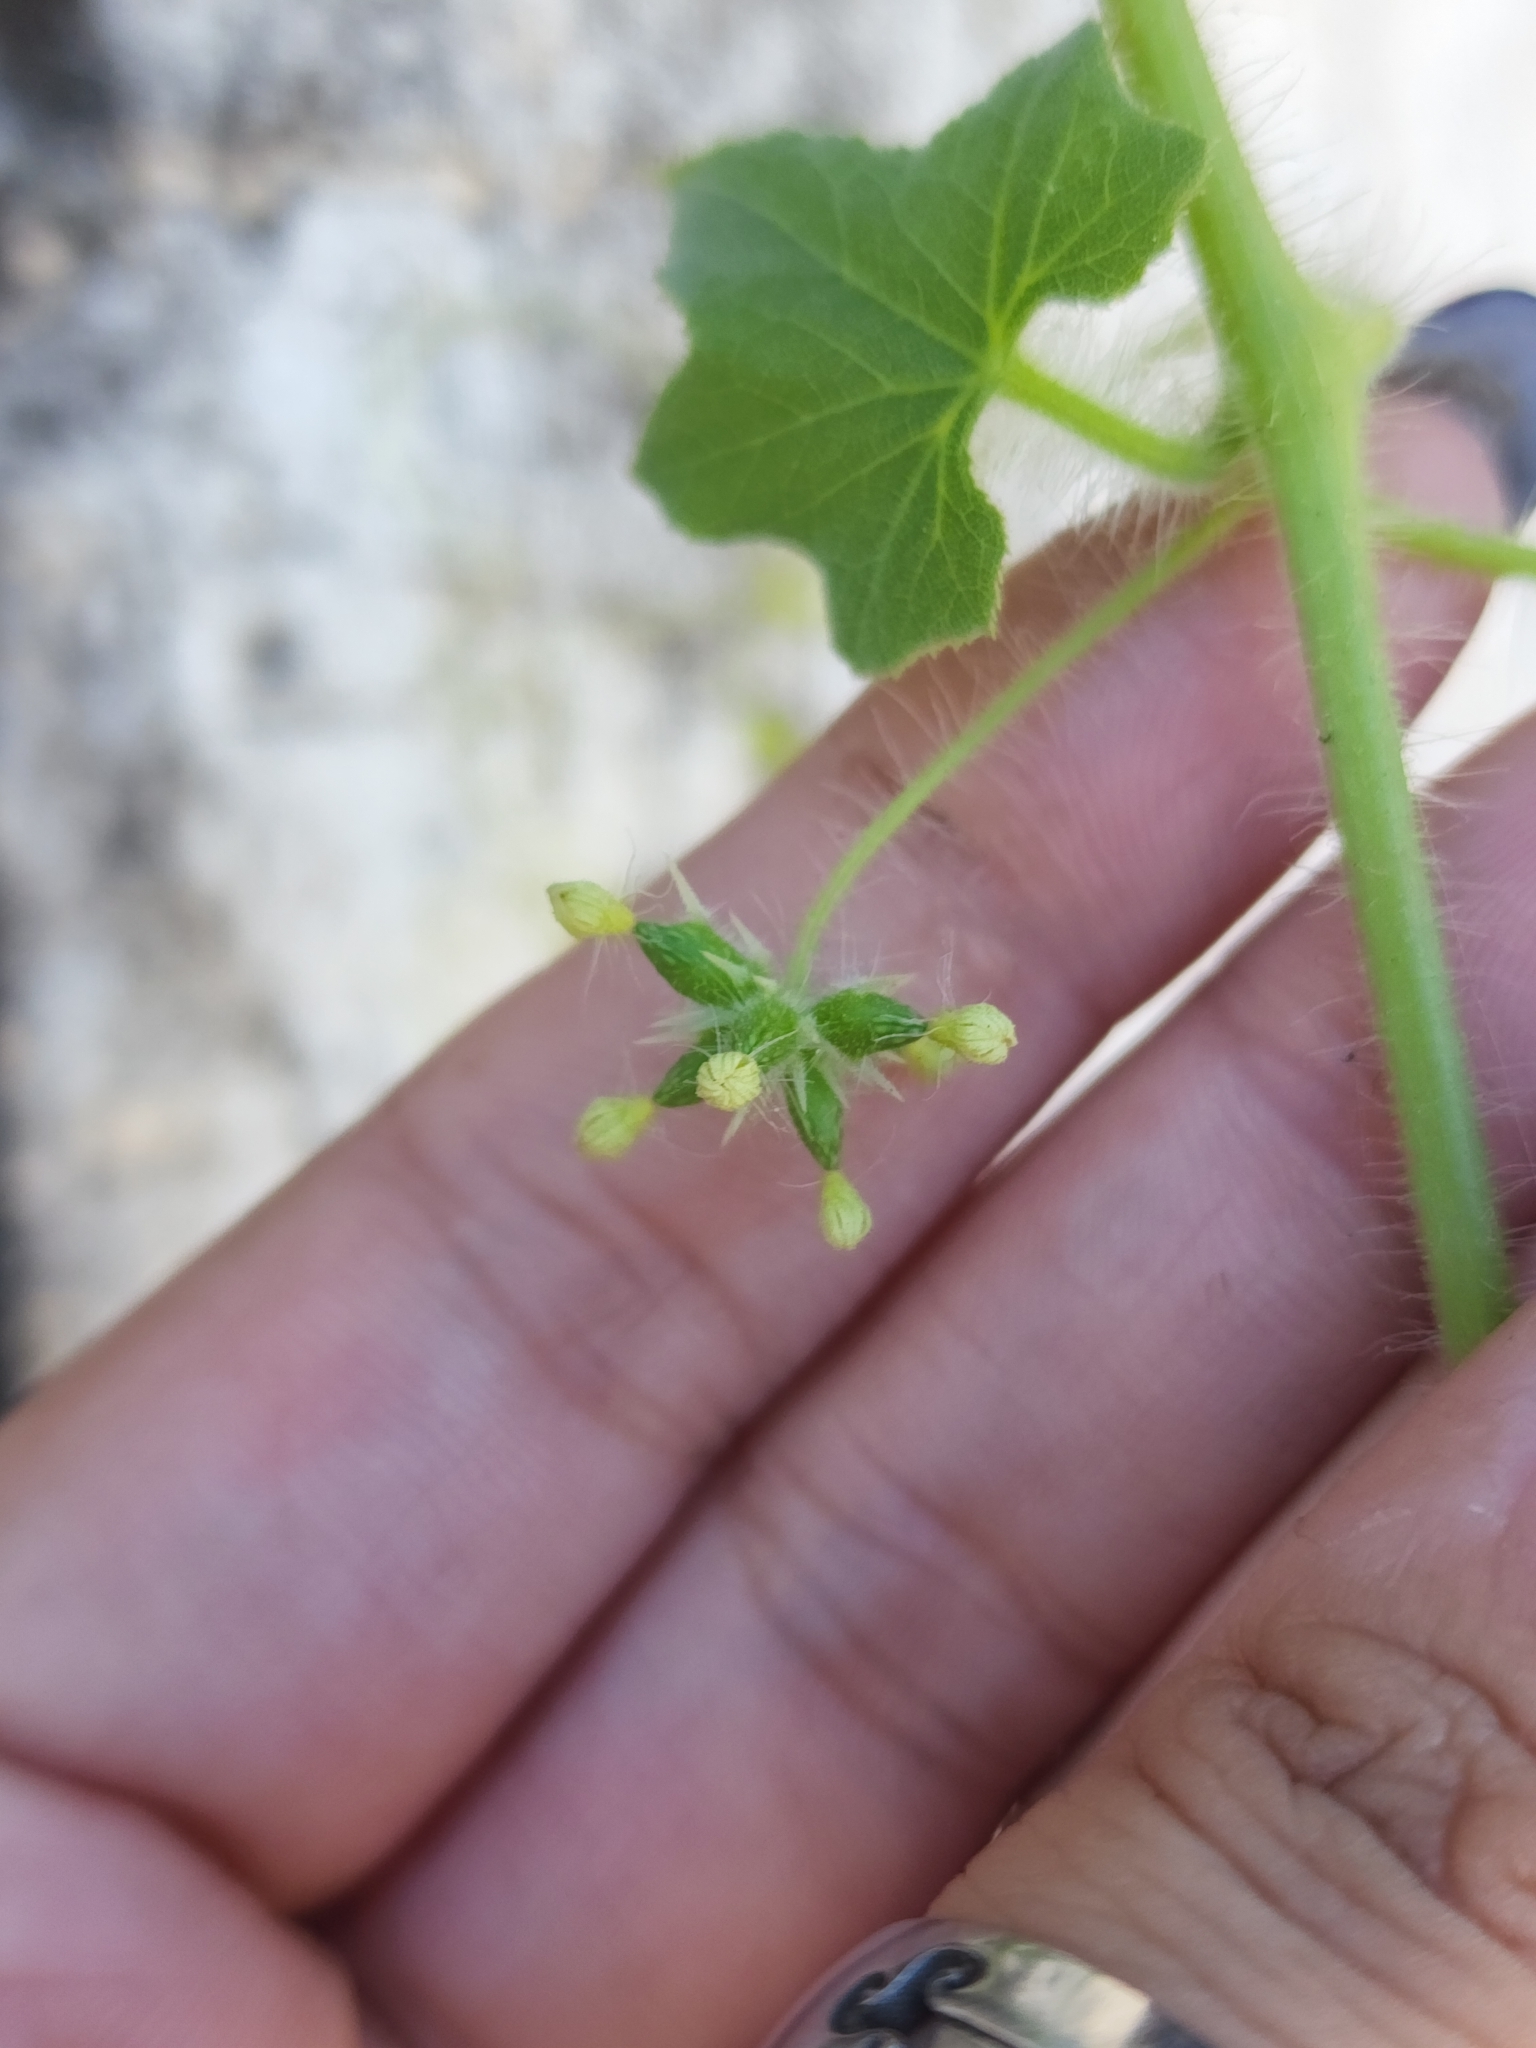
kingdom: Plantae
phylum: Tracheophyta
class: Magnoliopsida
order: Cucurbitales
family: Cucurbitaceae
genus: Sicyos
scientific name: Sicyos malvifolius
